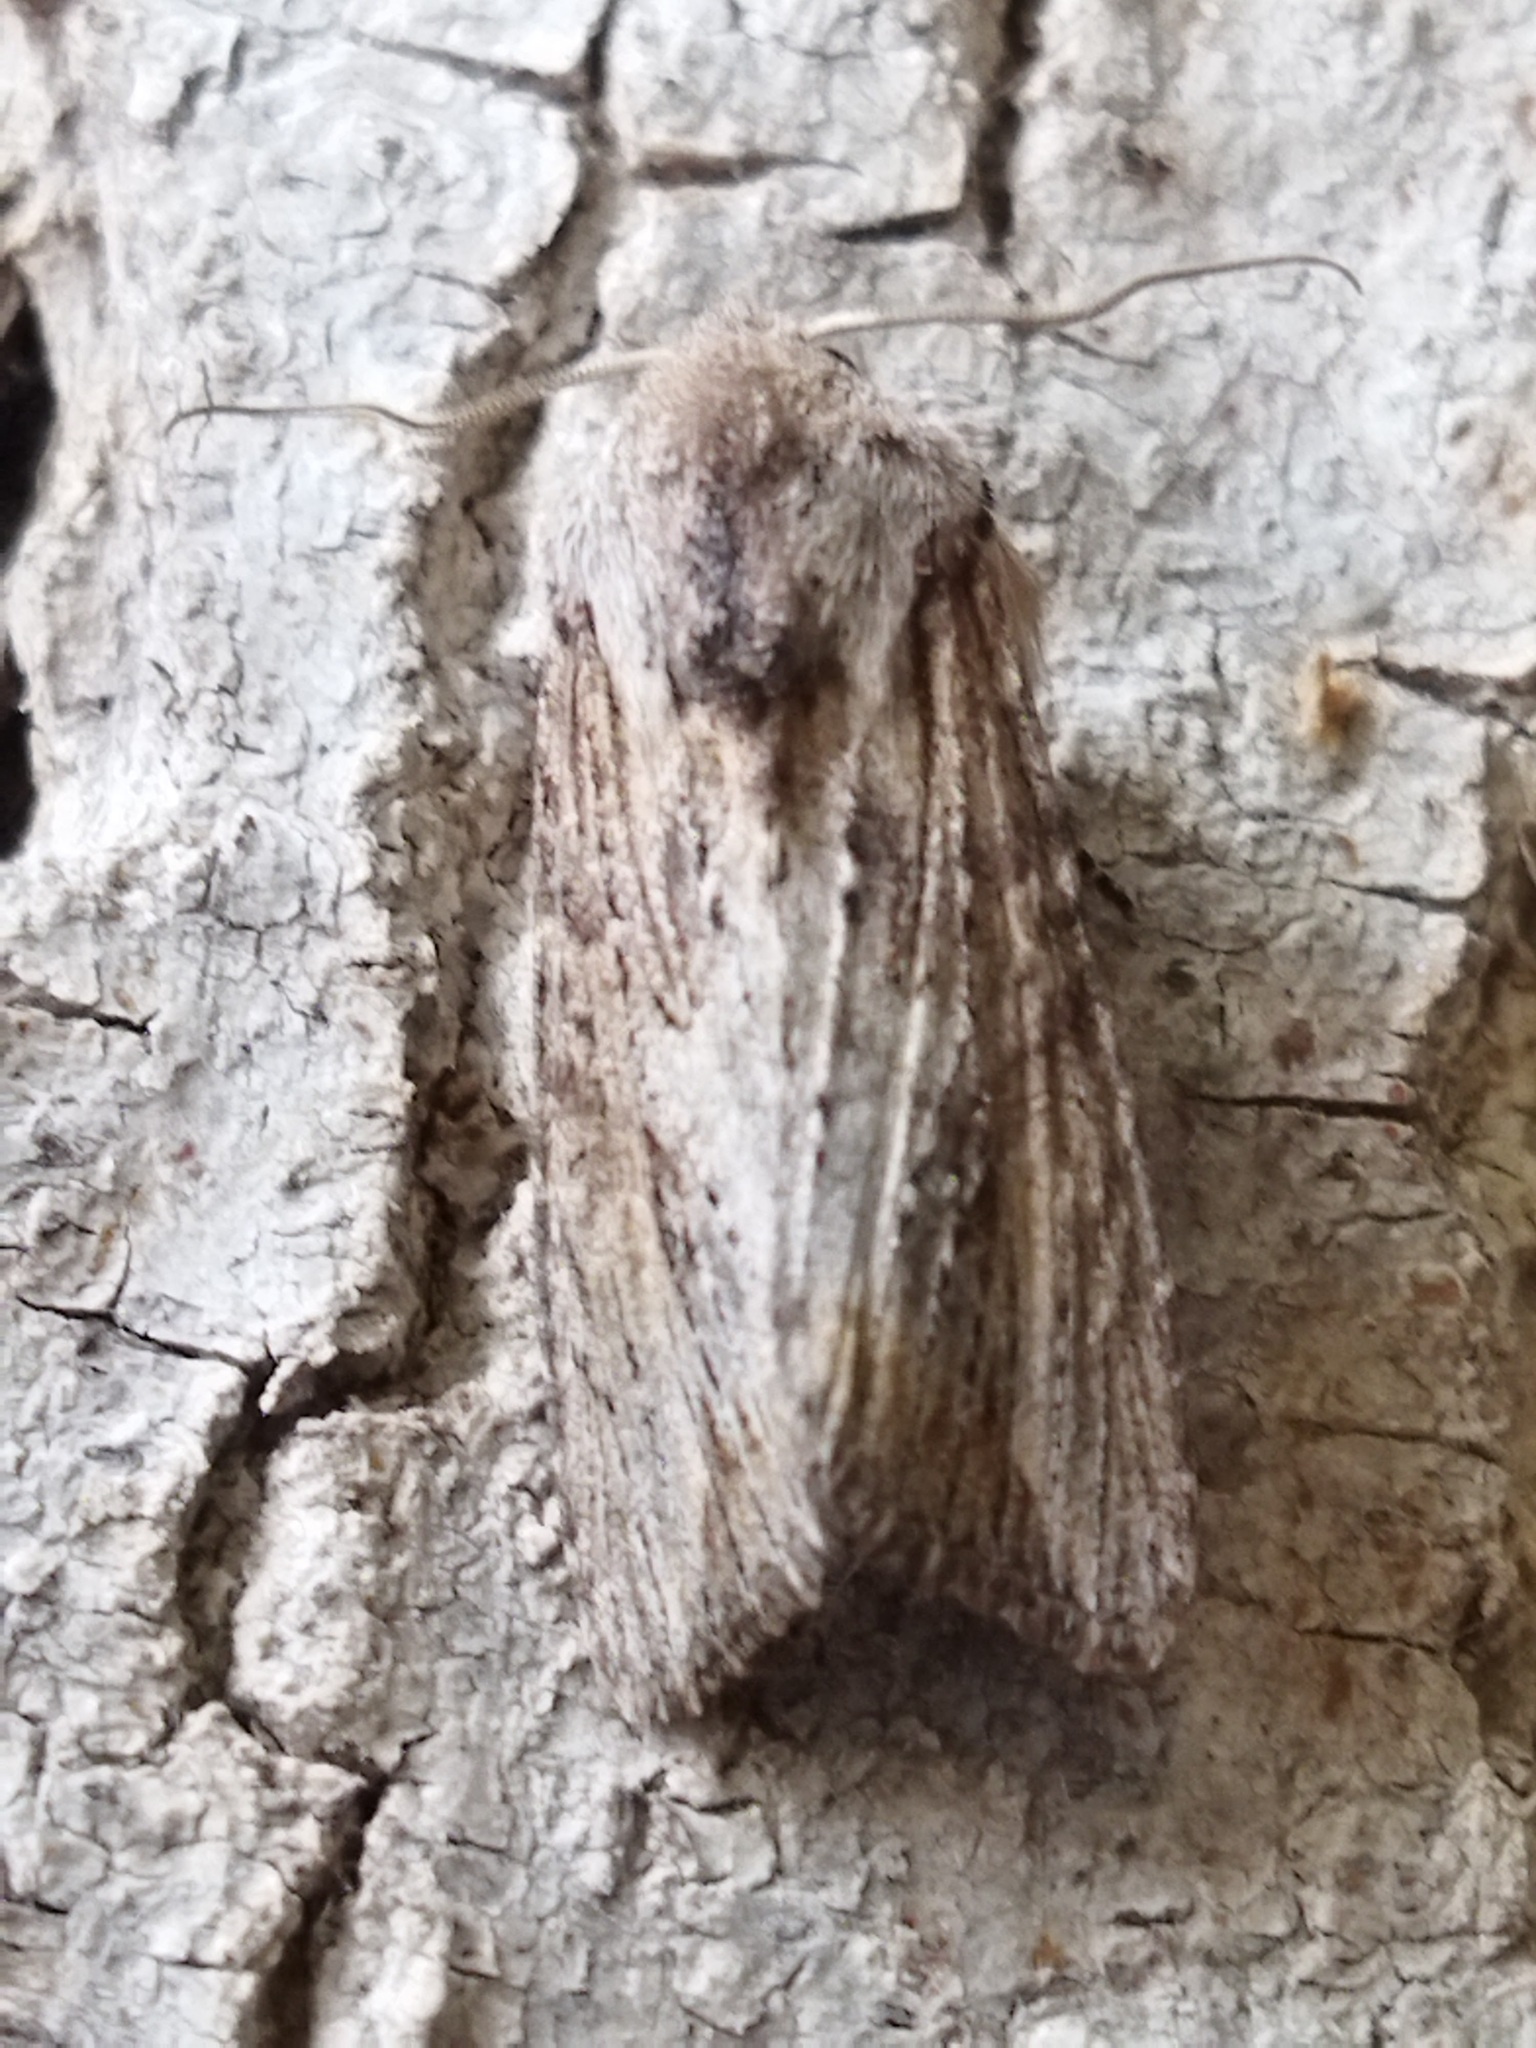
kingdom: Animalia
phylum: Arthropoda
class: Insecta
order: Lepidoptera
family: Noctuidae
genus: Egira
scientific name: Egira
